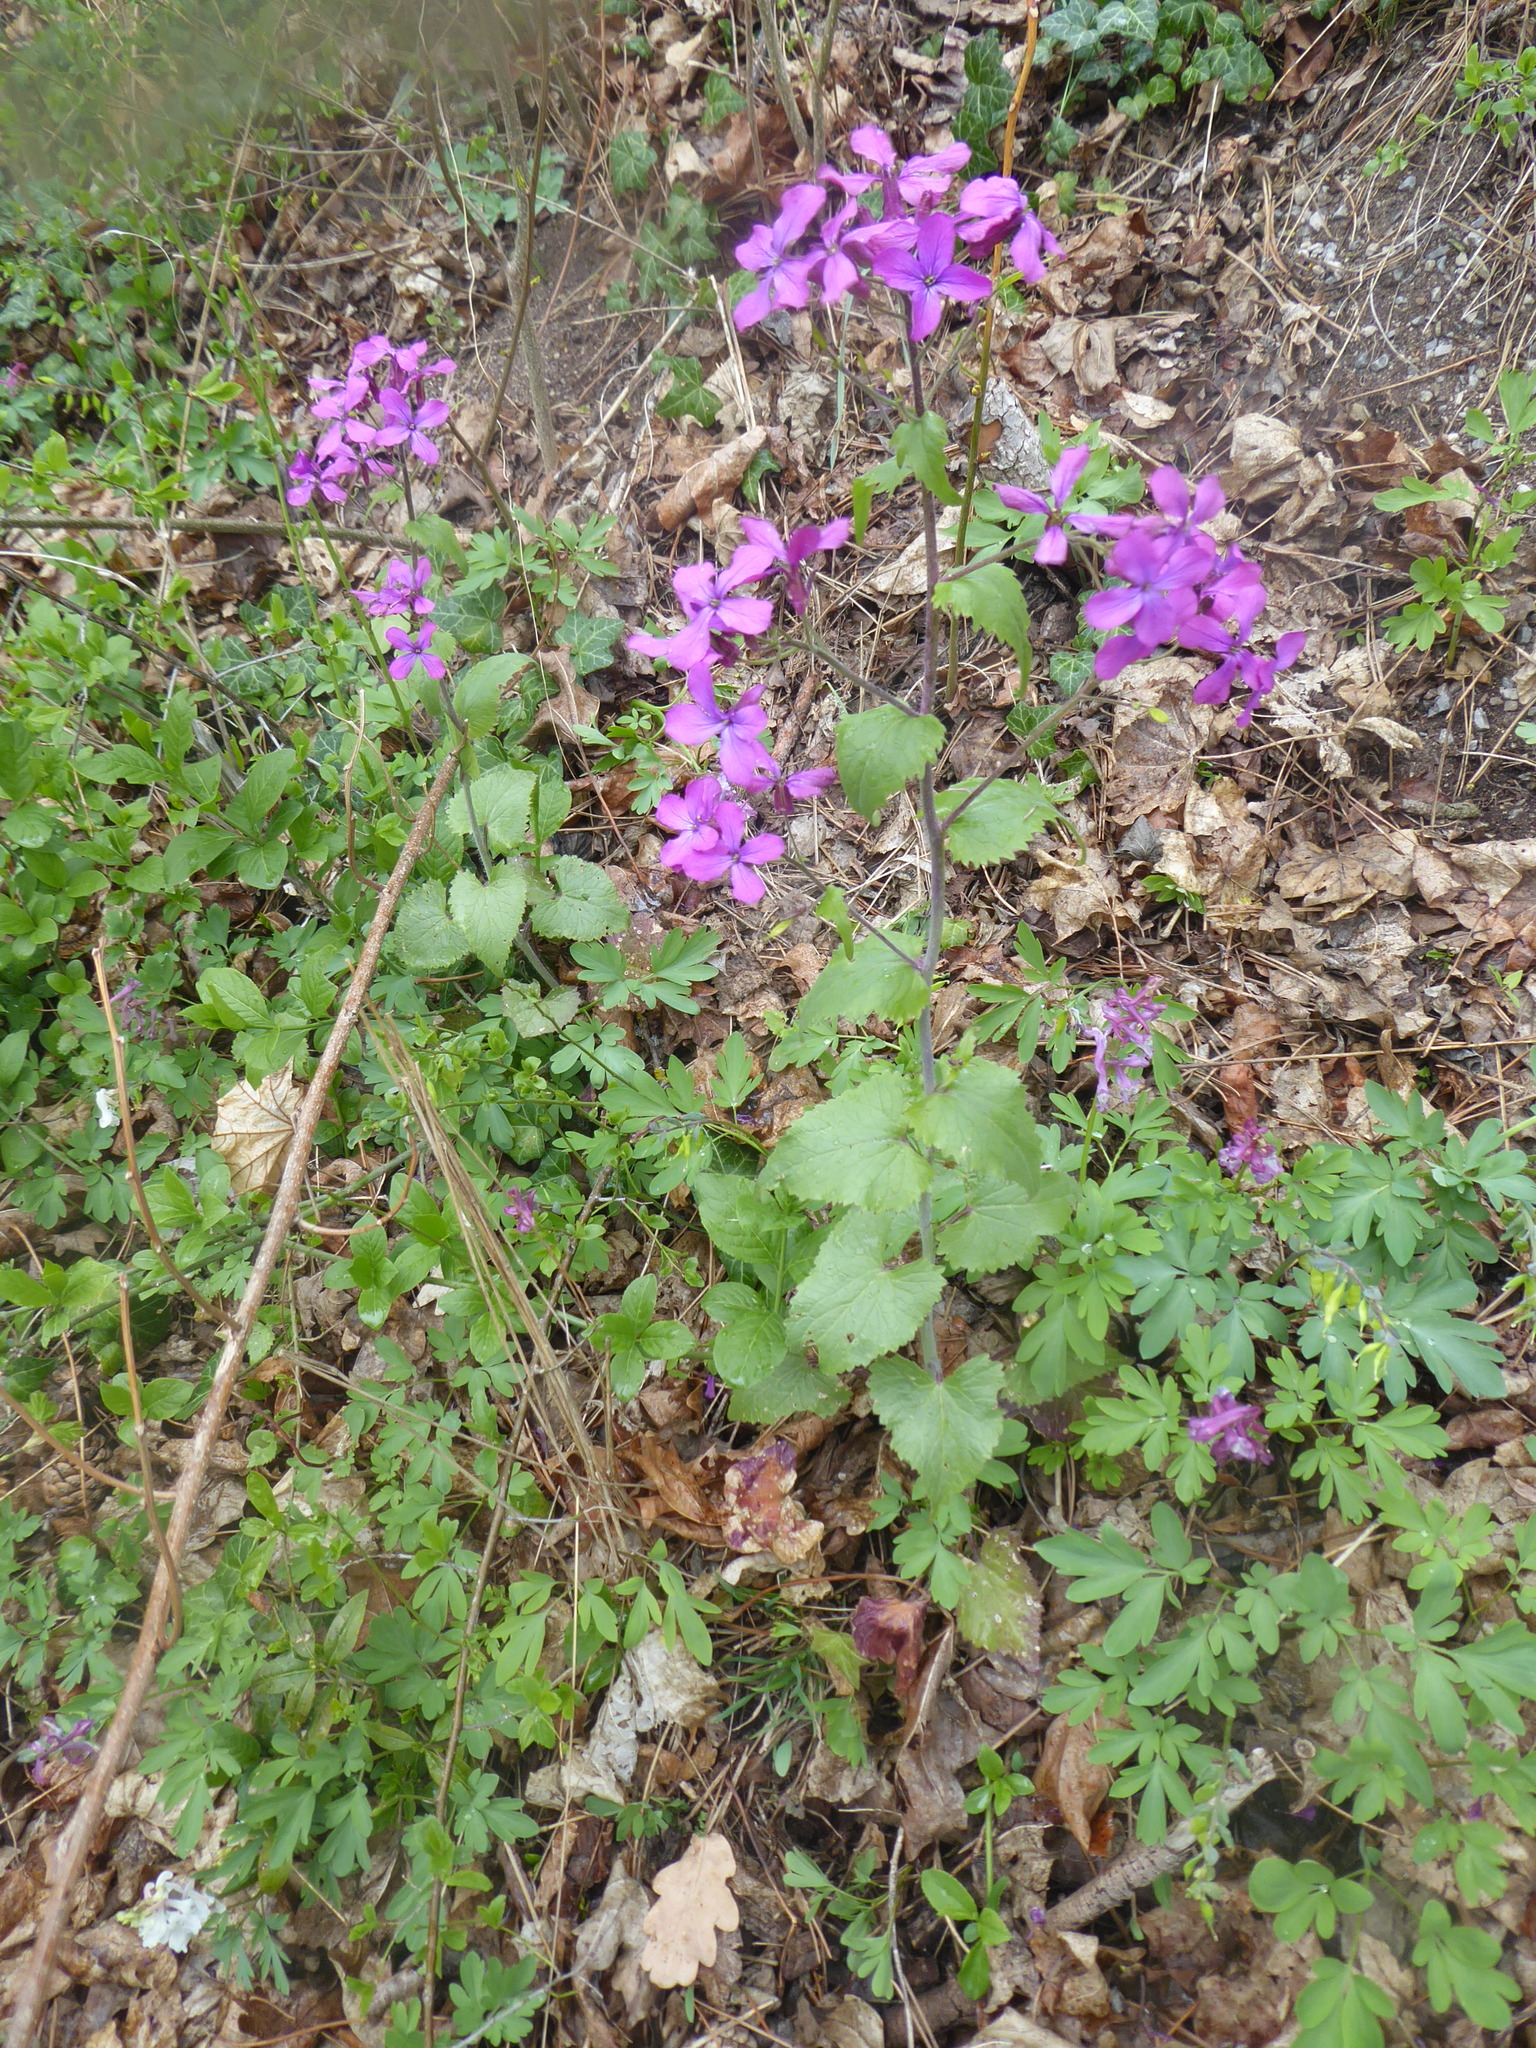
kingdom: Plantae
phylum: Tracheophyta
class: Magnoliopsida
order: Brassicales
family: Brassicaceae
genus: Lunaria
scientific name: Lunaria annua
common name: Honesty
